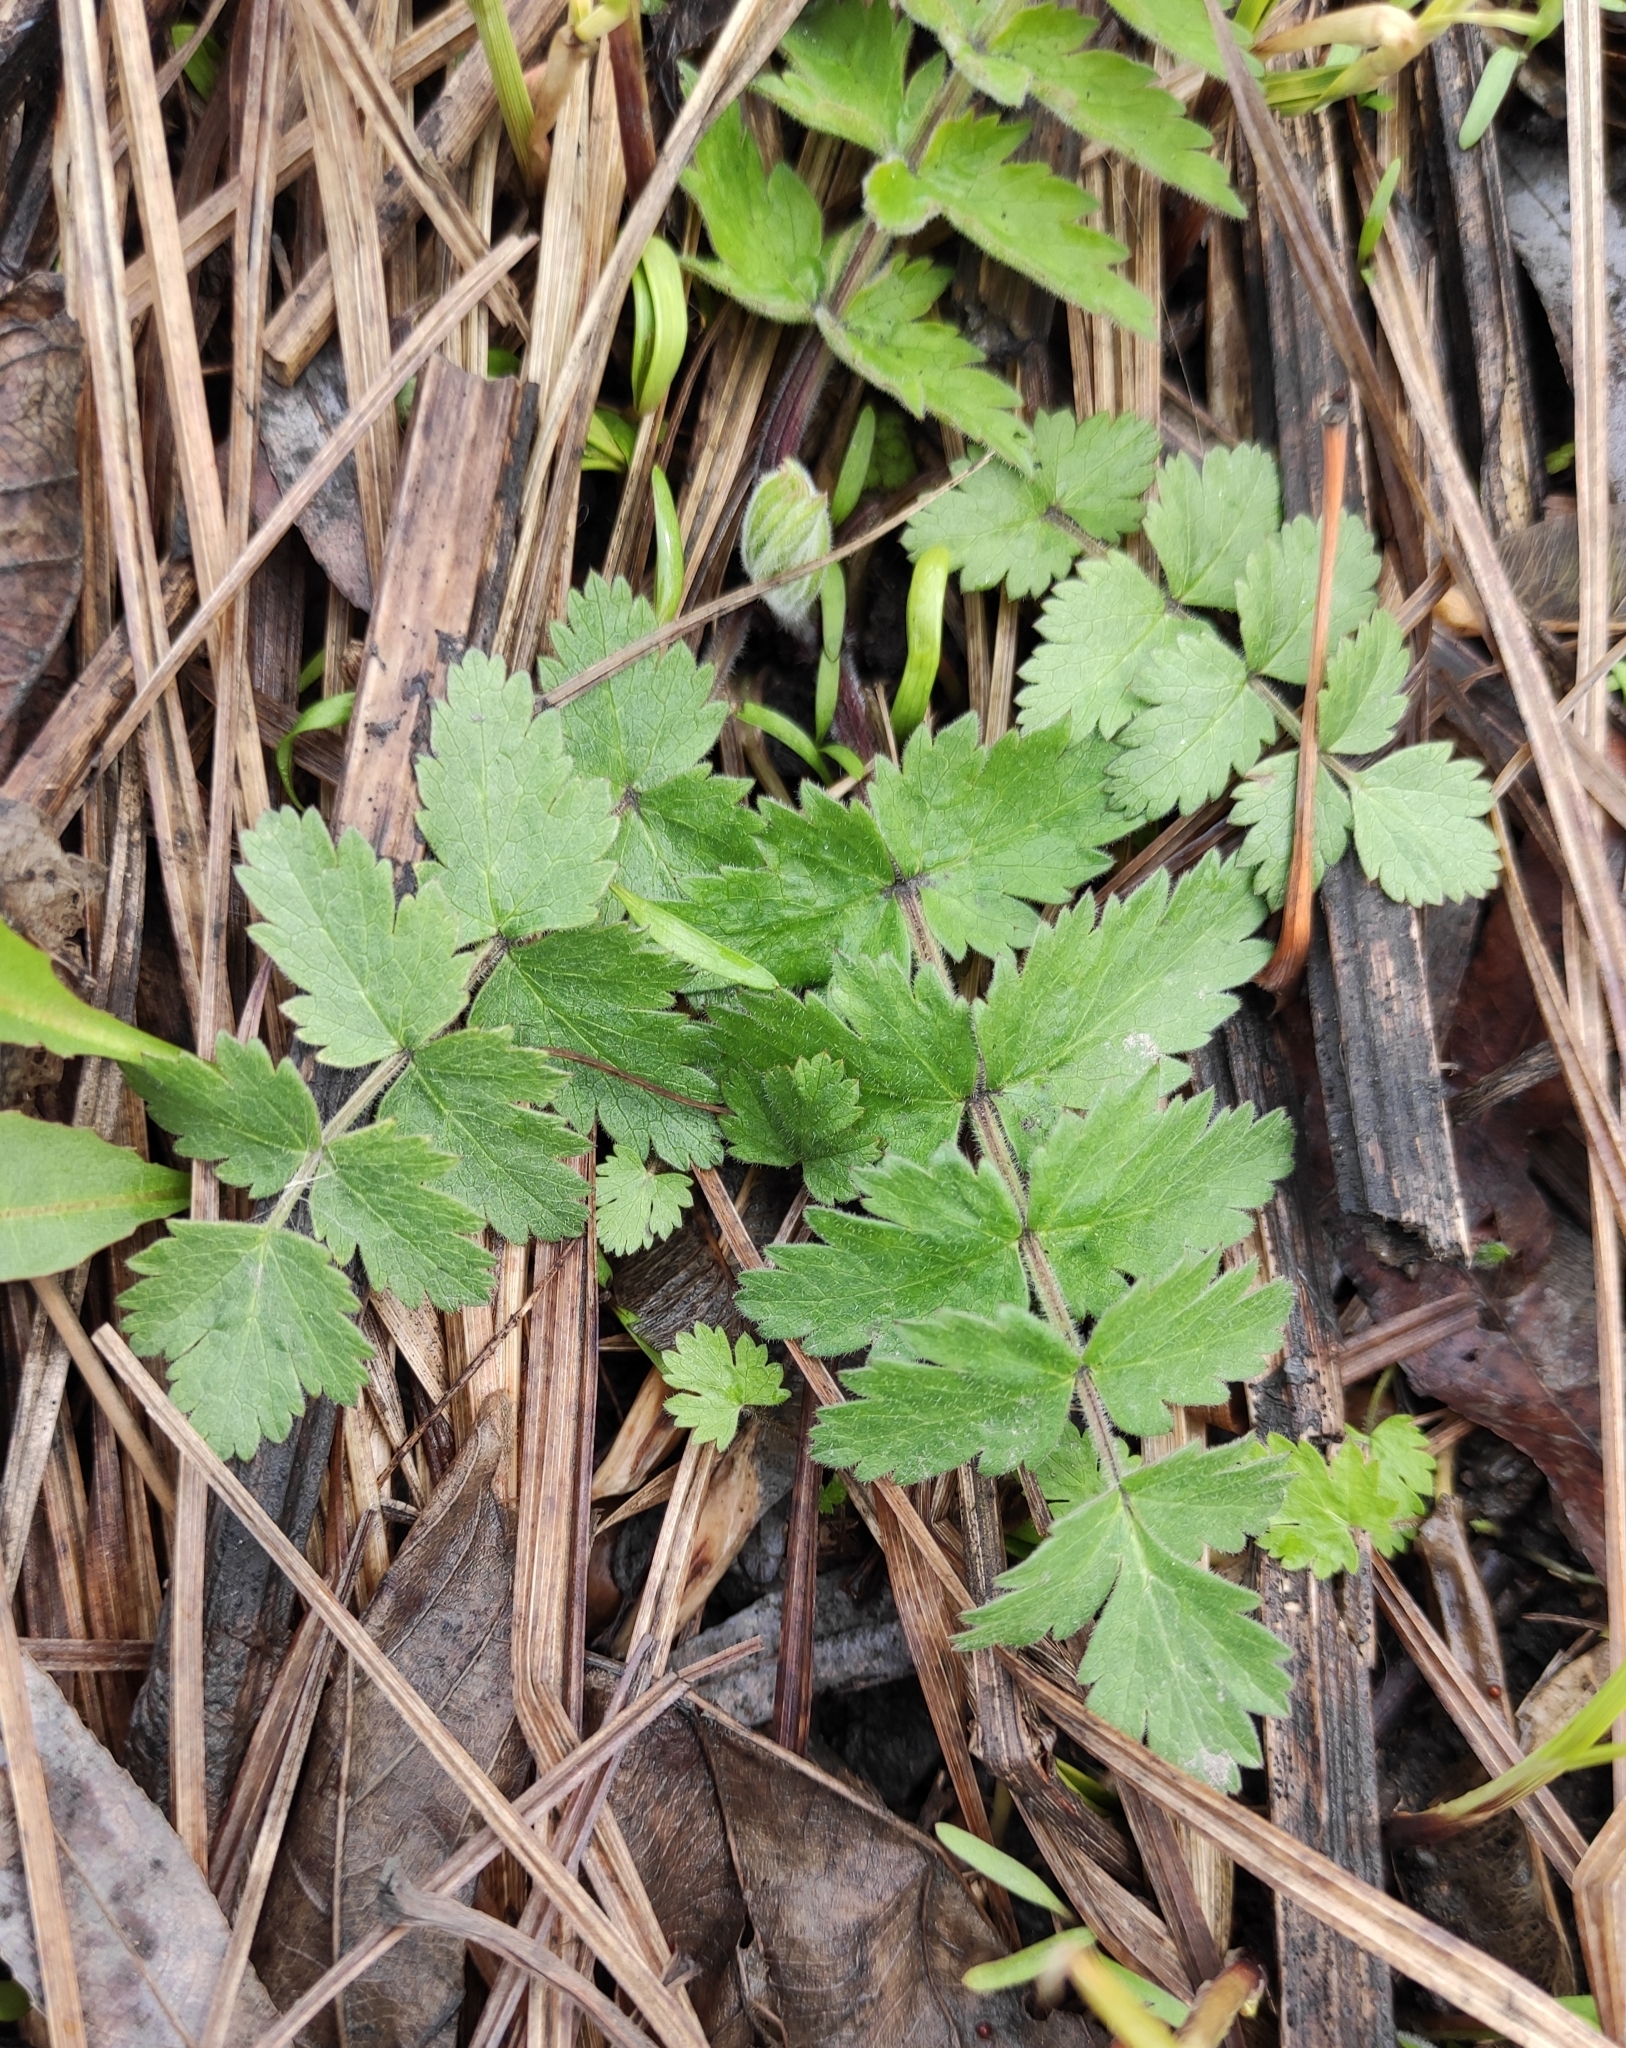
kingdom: Plantae
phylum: Tracheophyta
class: Magnoliopsida
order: Apiales
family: Apiaceae
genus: Pimpinella
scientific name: Pimpinella saxifraga
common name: Burnet-saxifrage
